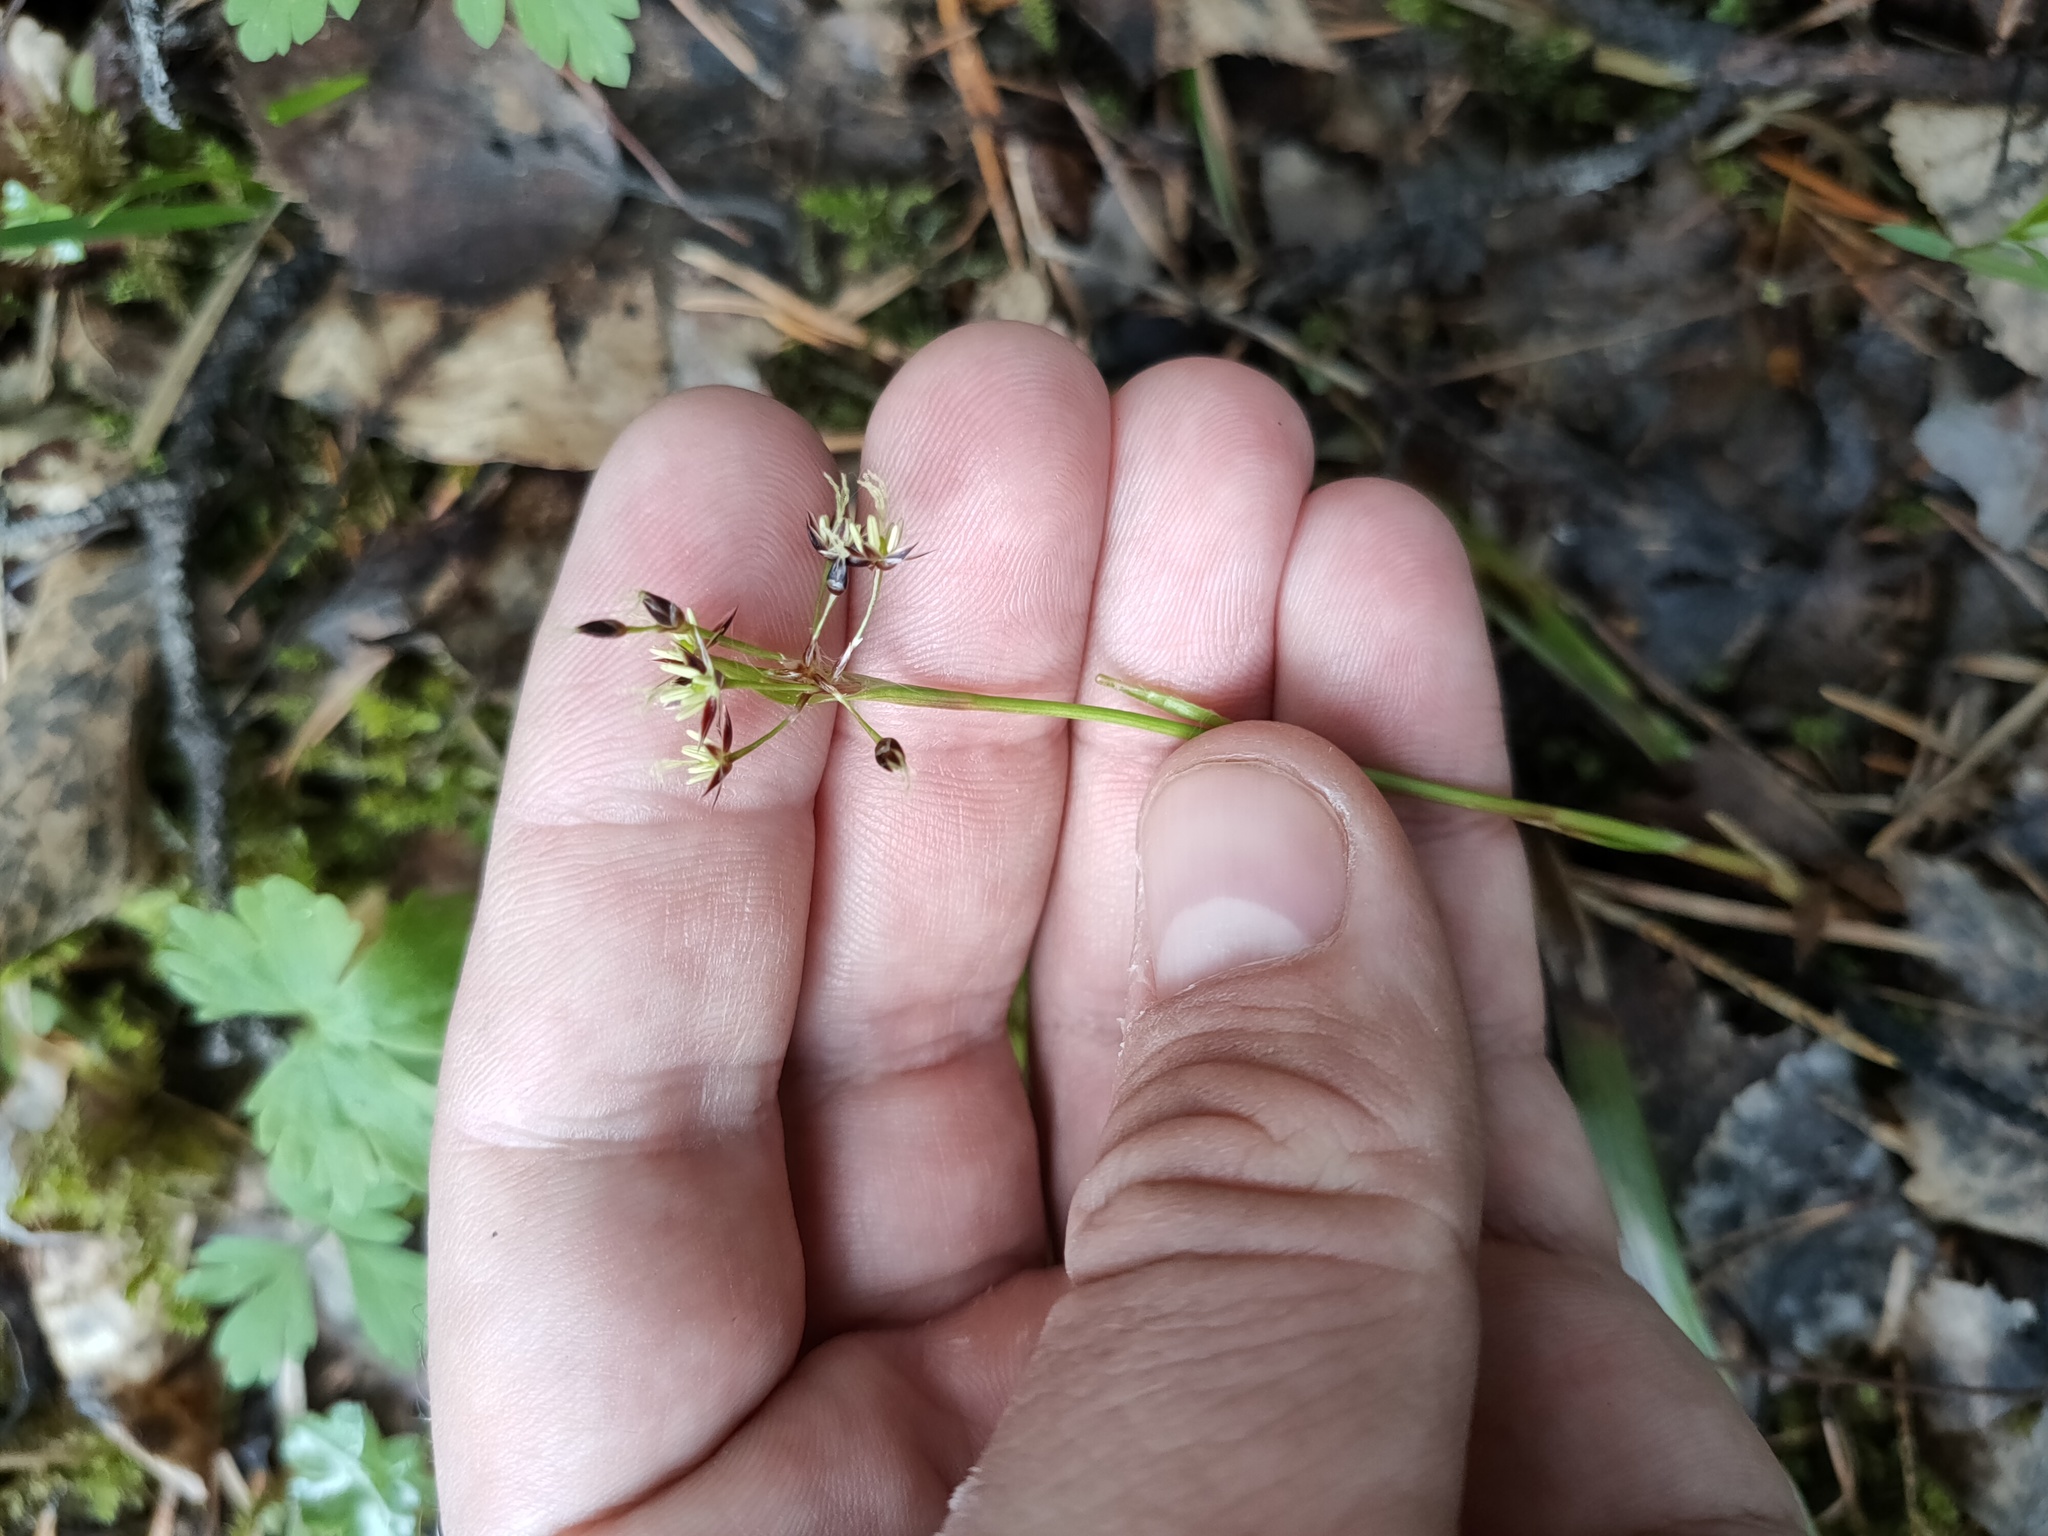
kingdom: Plantae
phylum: Tracheophyta
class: Liliopsida
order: Poales
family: Juncaceae
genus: Luzula
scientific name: Luzula pilosa
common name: Hairy wood-rush
